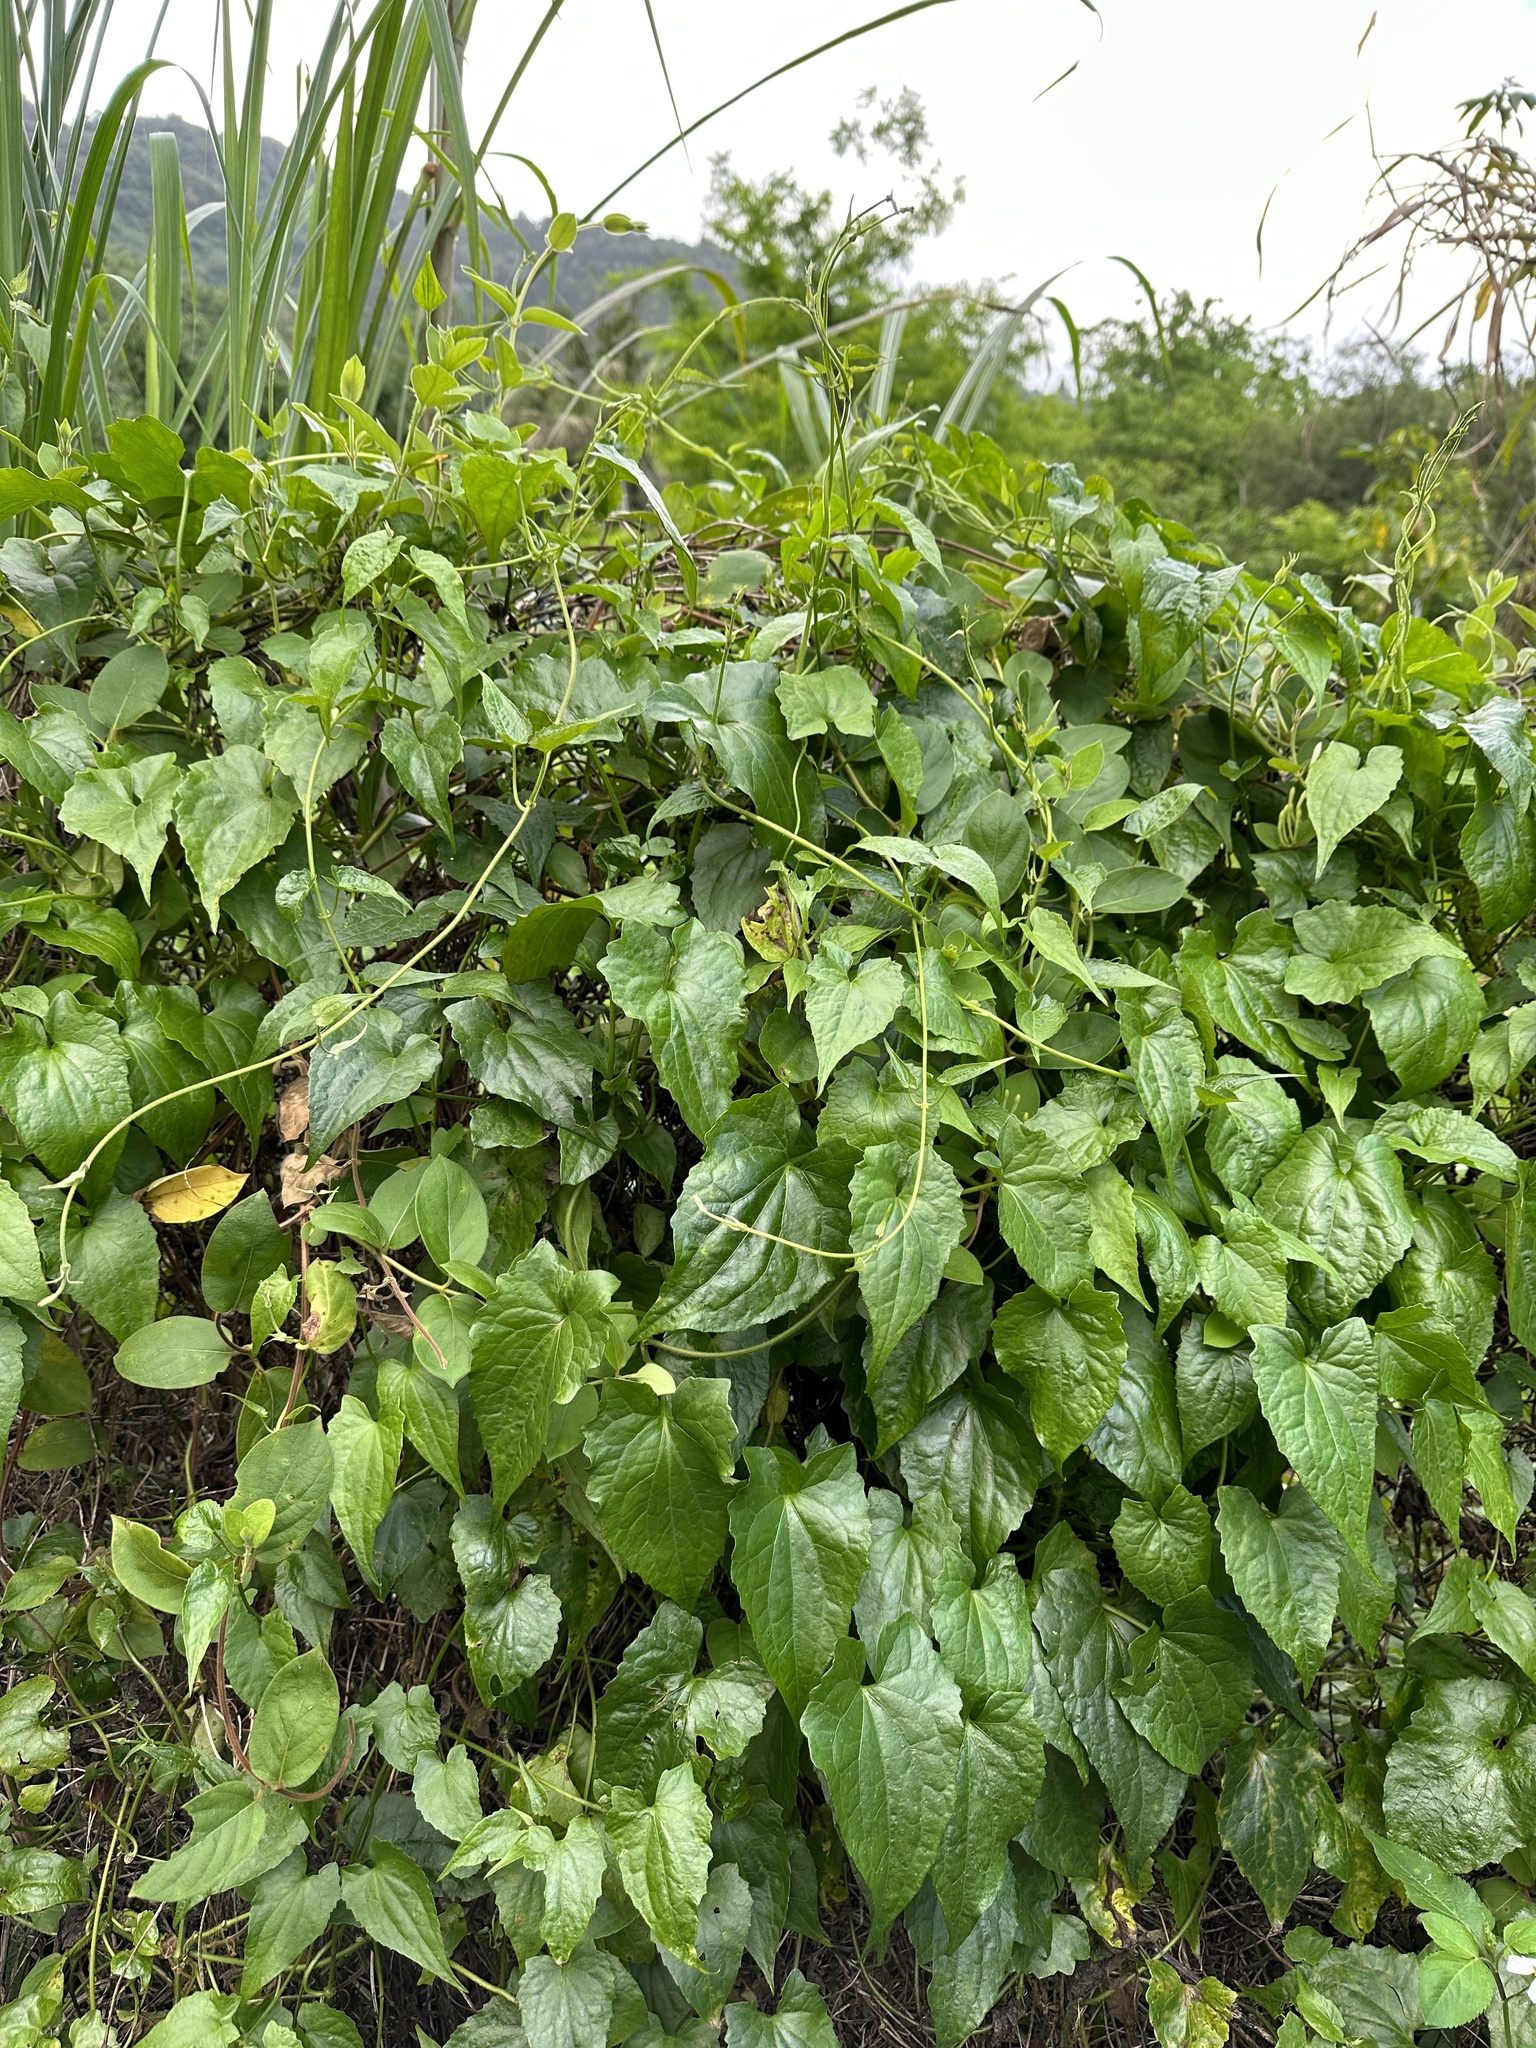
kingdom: Plantae
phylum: Tracheophyta
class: Magnoliopsida
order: Asterales
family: Asteraceae
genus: Mikania
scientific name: Mikania micrantha
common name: Mile-a-minute
